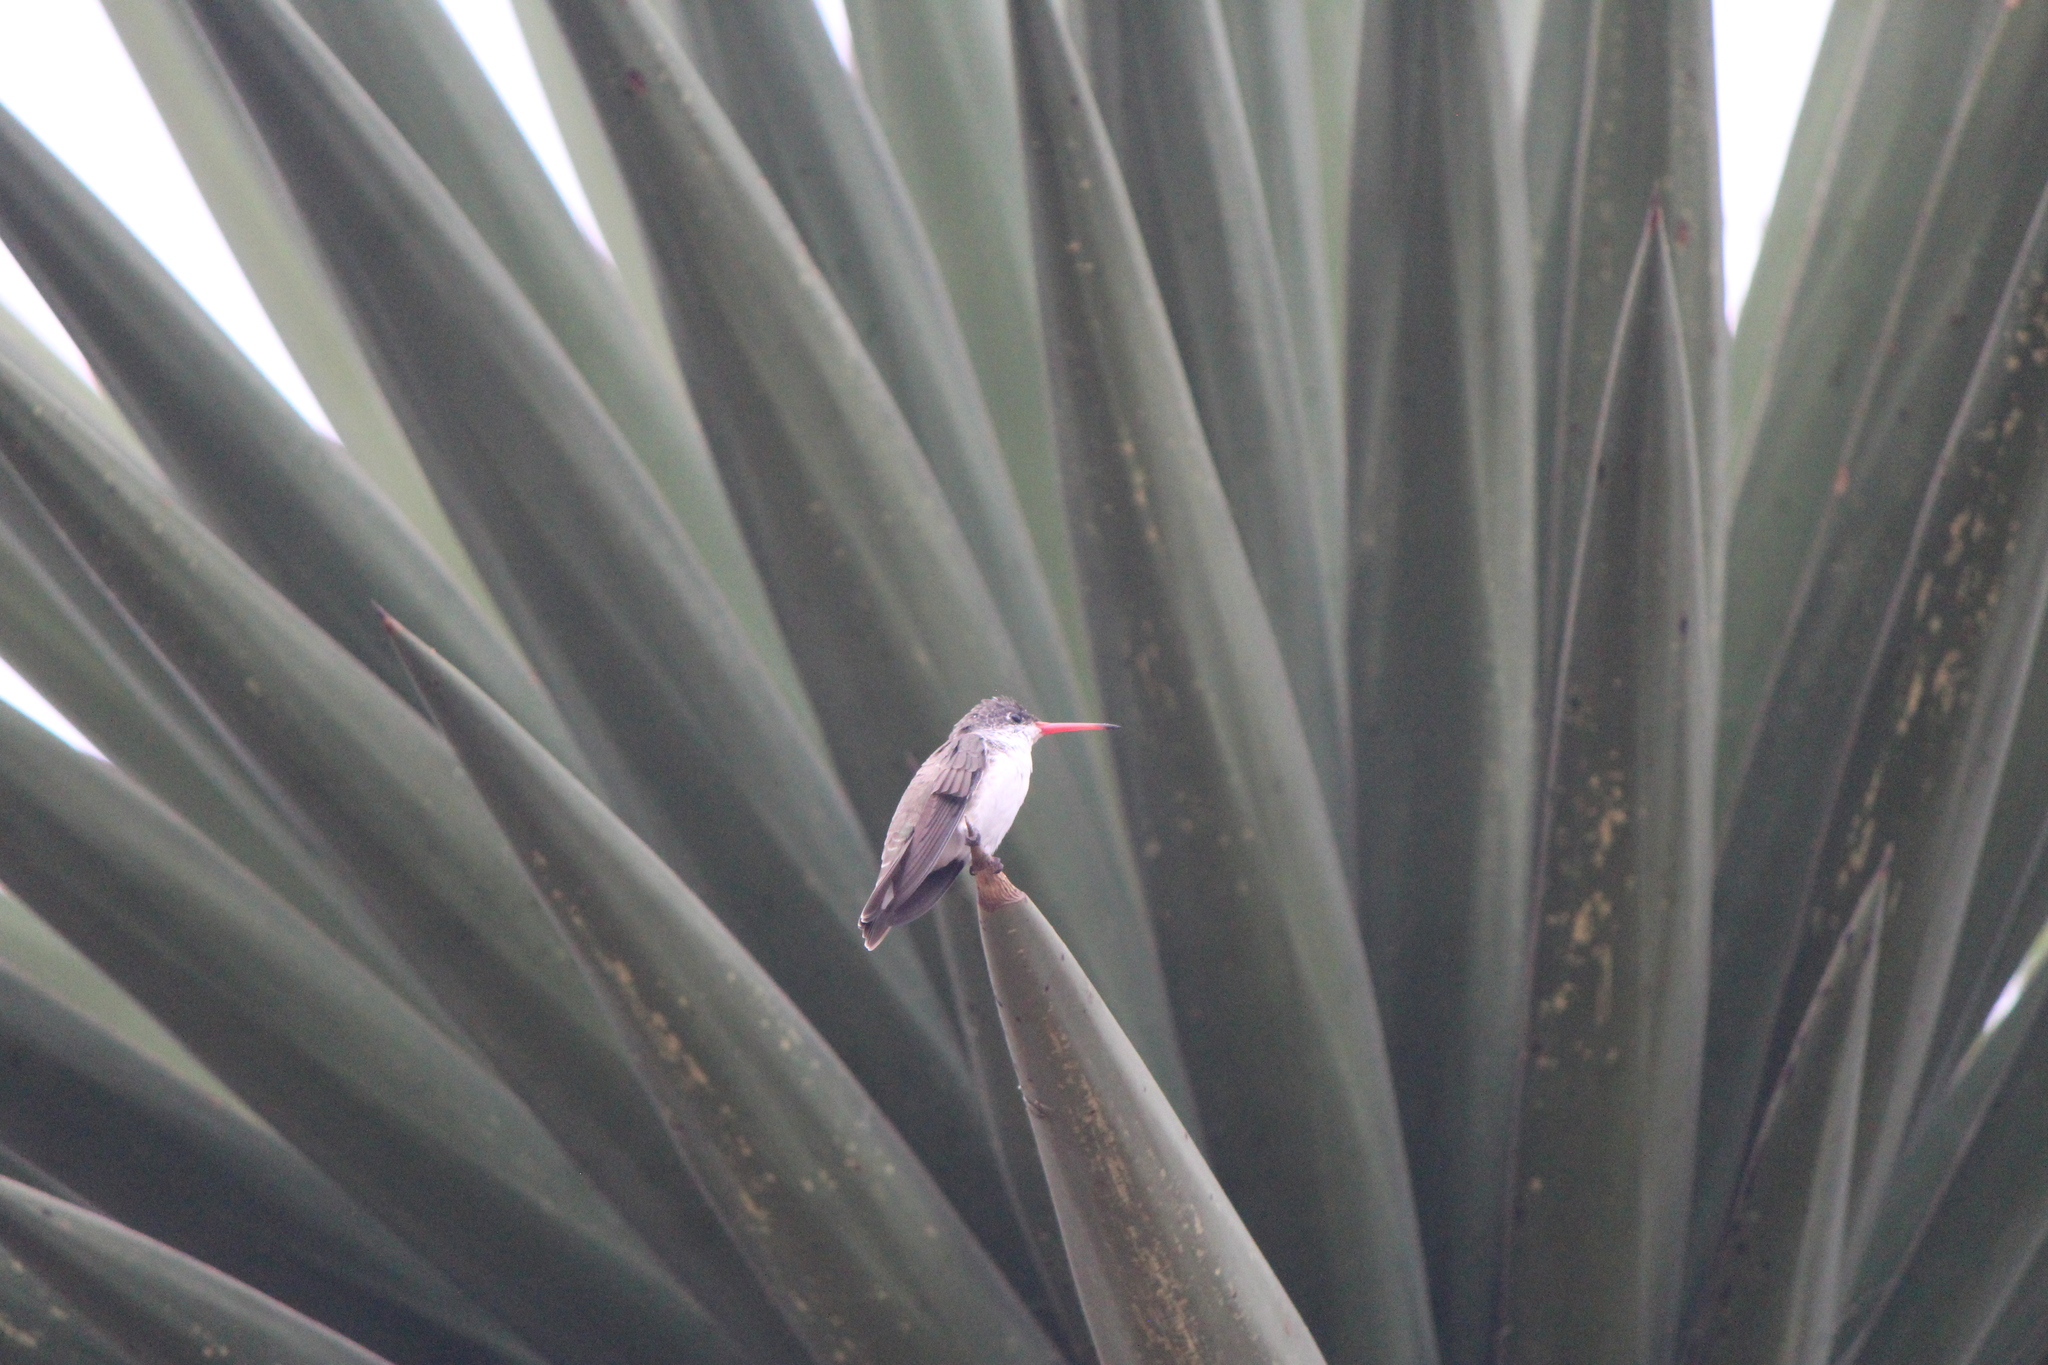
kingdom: Animalia
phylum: Chordata
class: Aves
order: Apodiformes
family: Trochilidae
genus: Leucolia
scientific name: Leucolia violiceps
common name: Violet-crowned hummingbird
